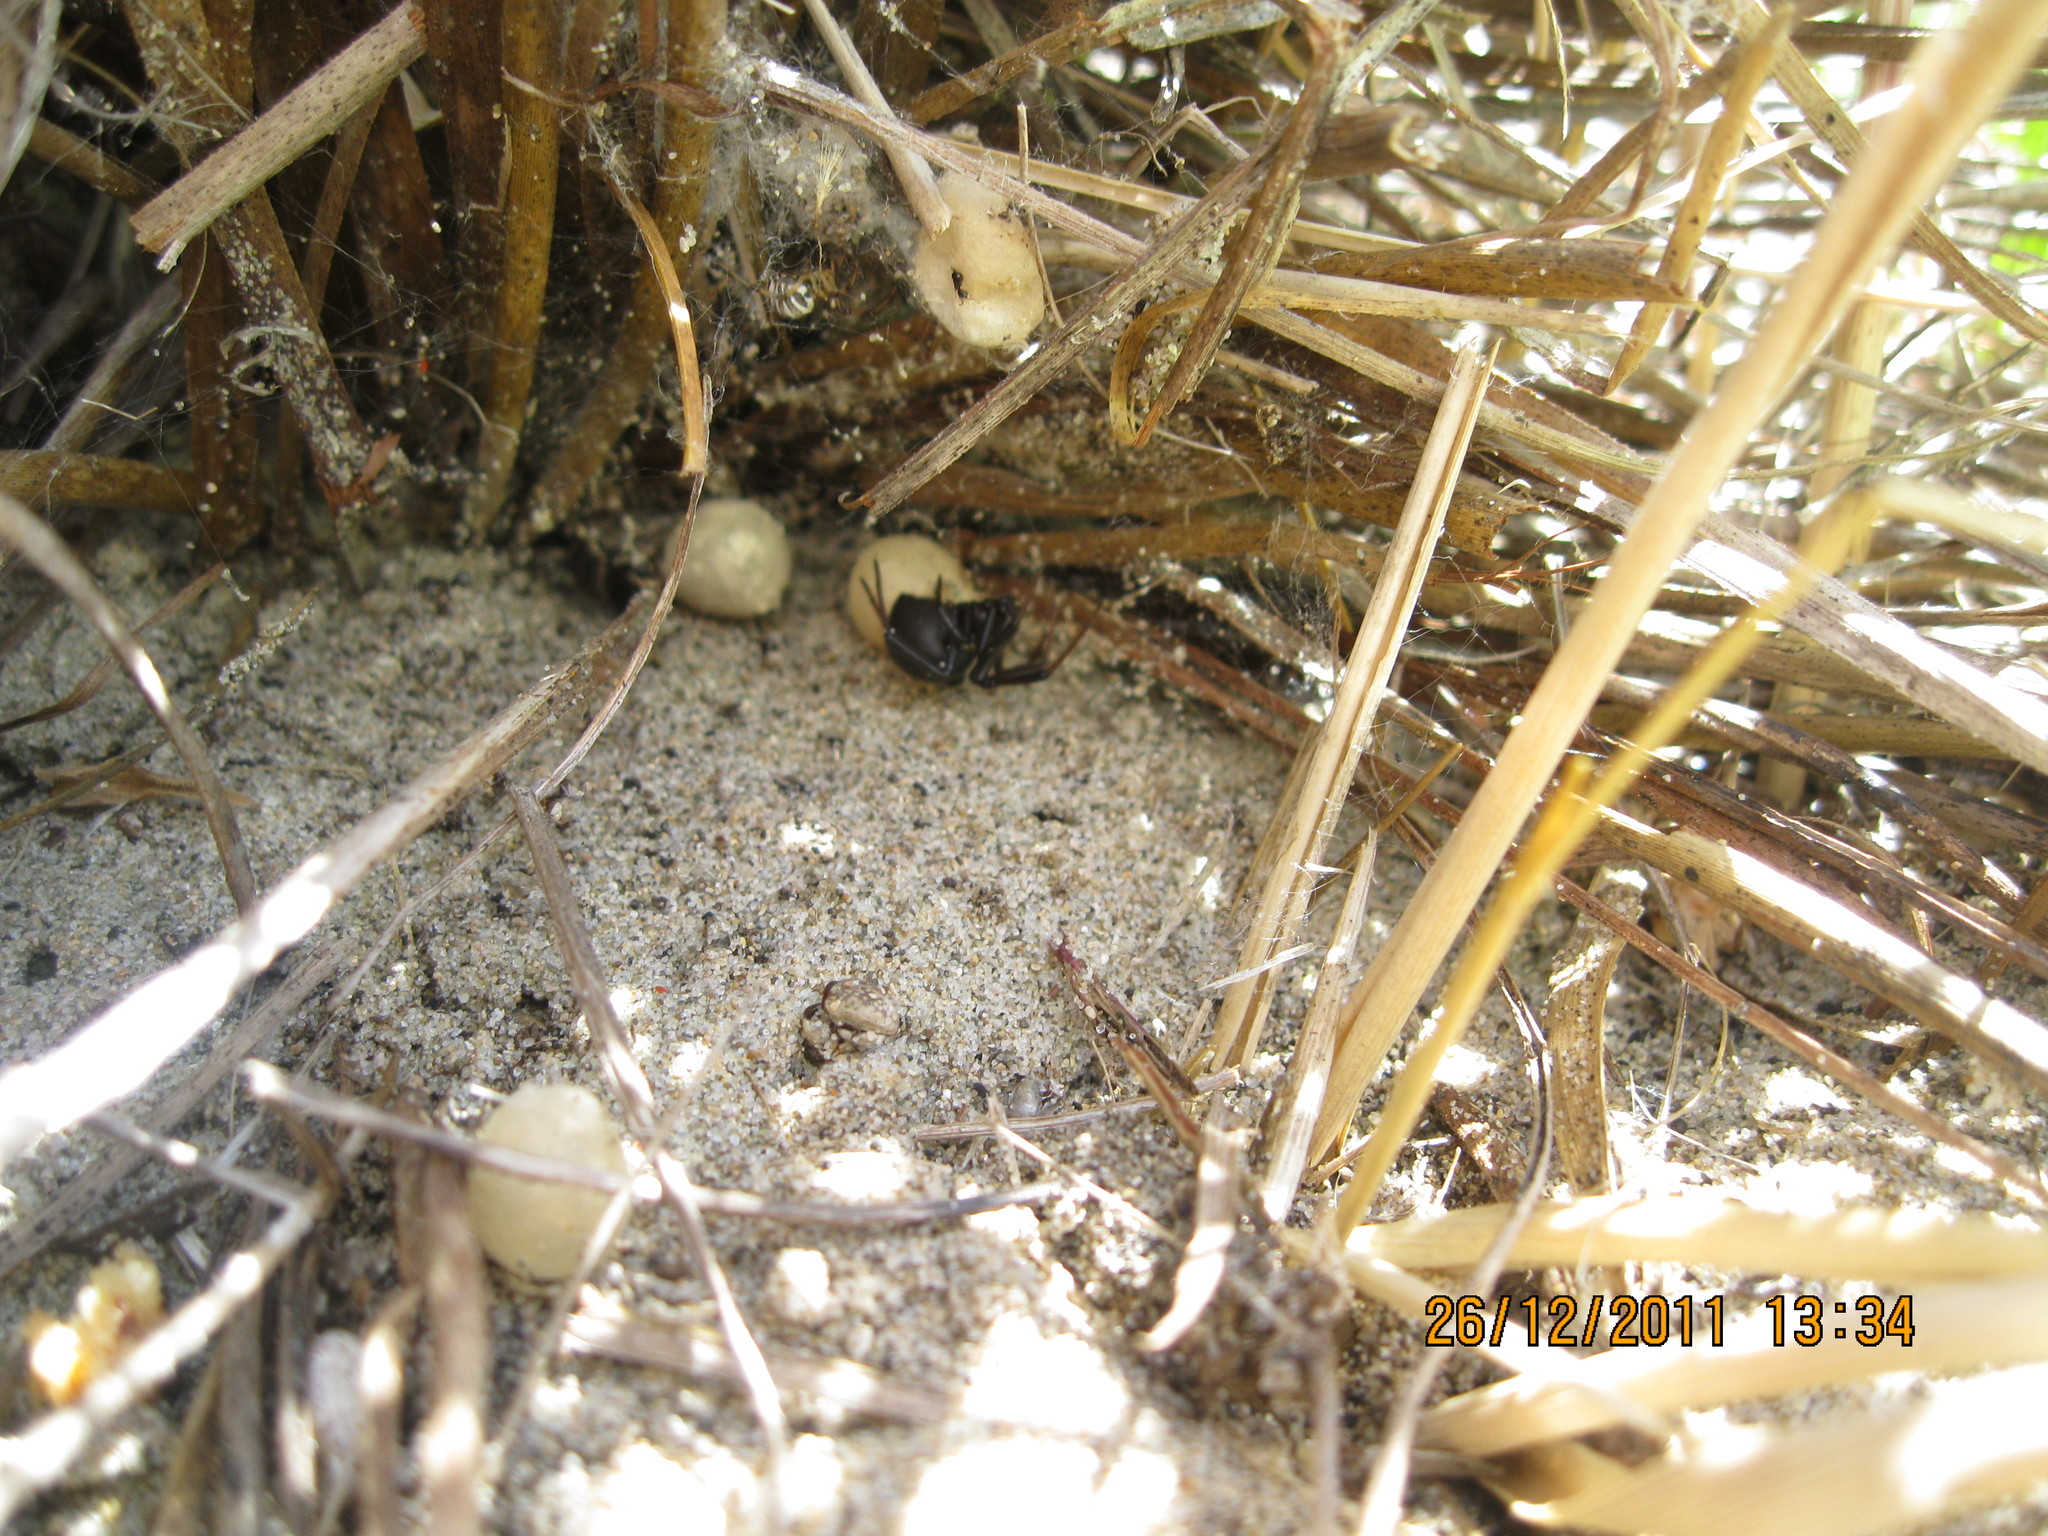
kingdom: Animalia
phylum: Arthropoda
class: Arachnida
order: Araneae
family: Theridiidae
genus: Latrodectus
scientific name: Latrodectus katipo
